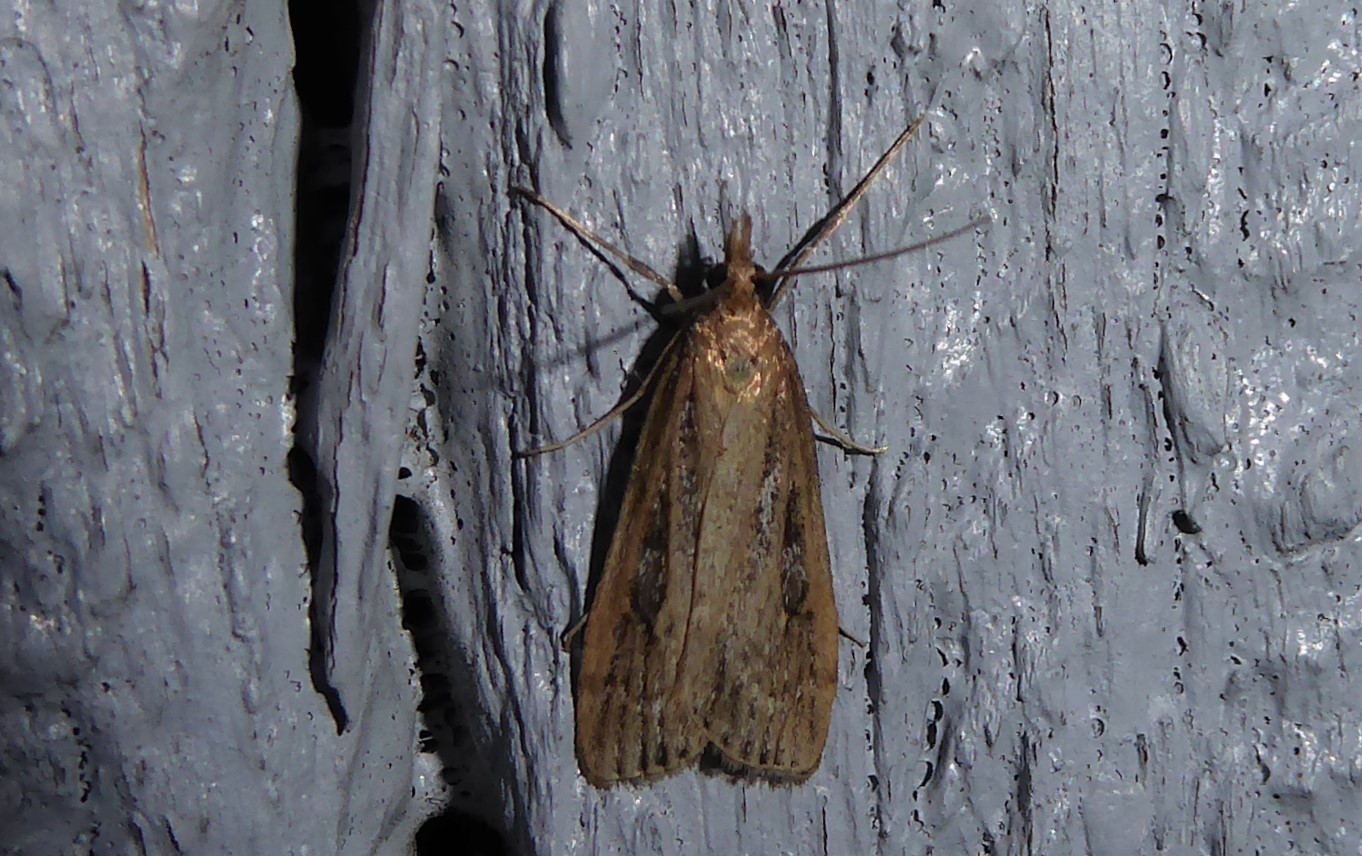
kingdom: Animalia
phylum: Arthropoda
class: Insecta
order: Lepidoptera
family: Crambidae
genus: Eudonia
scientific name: Eudonia octophora
